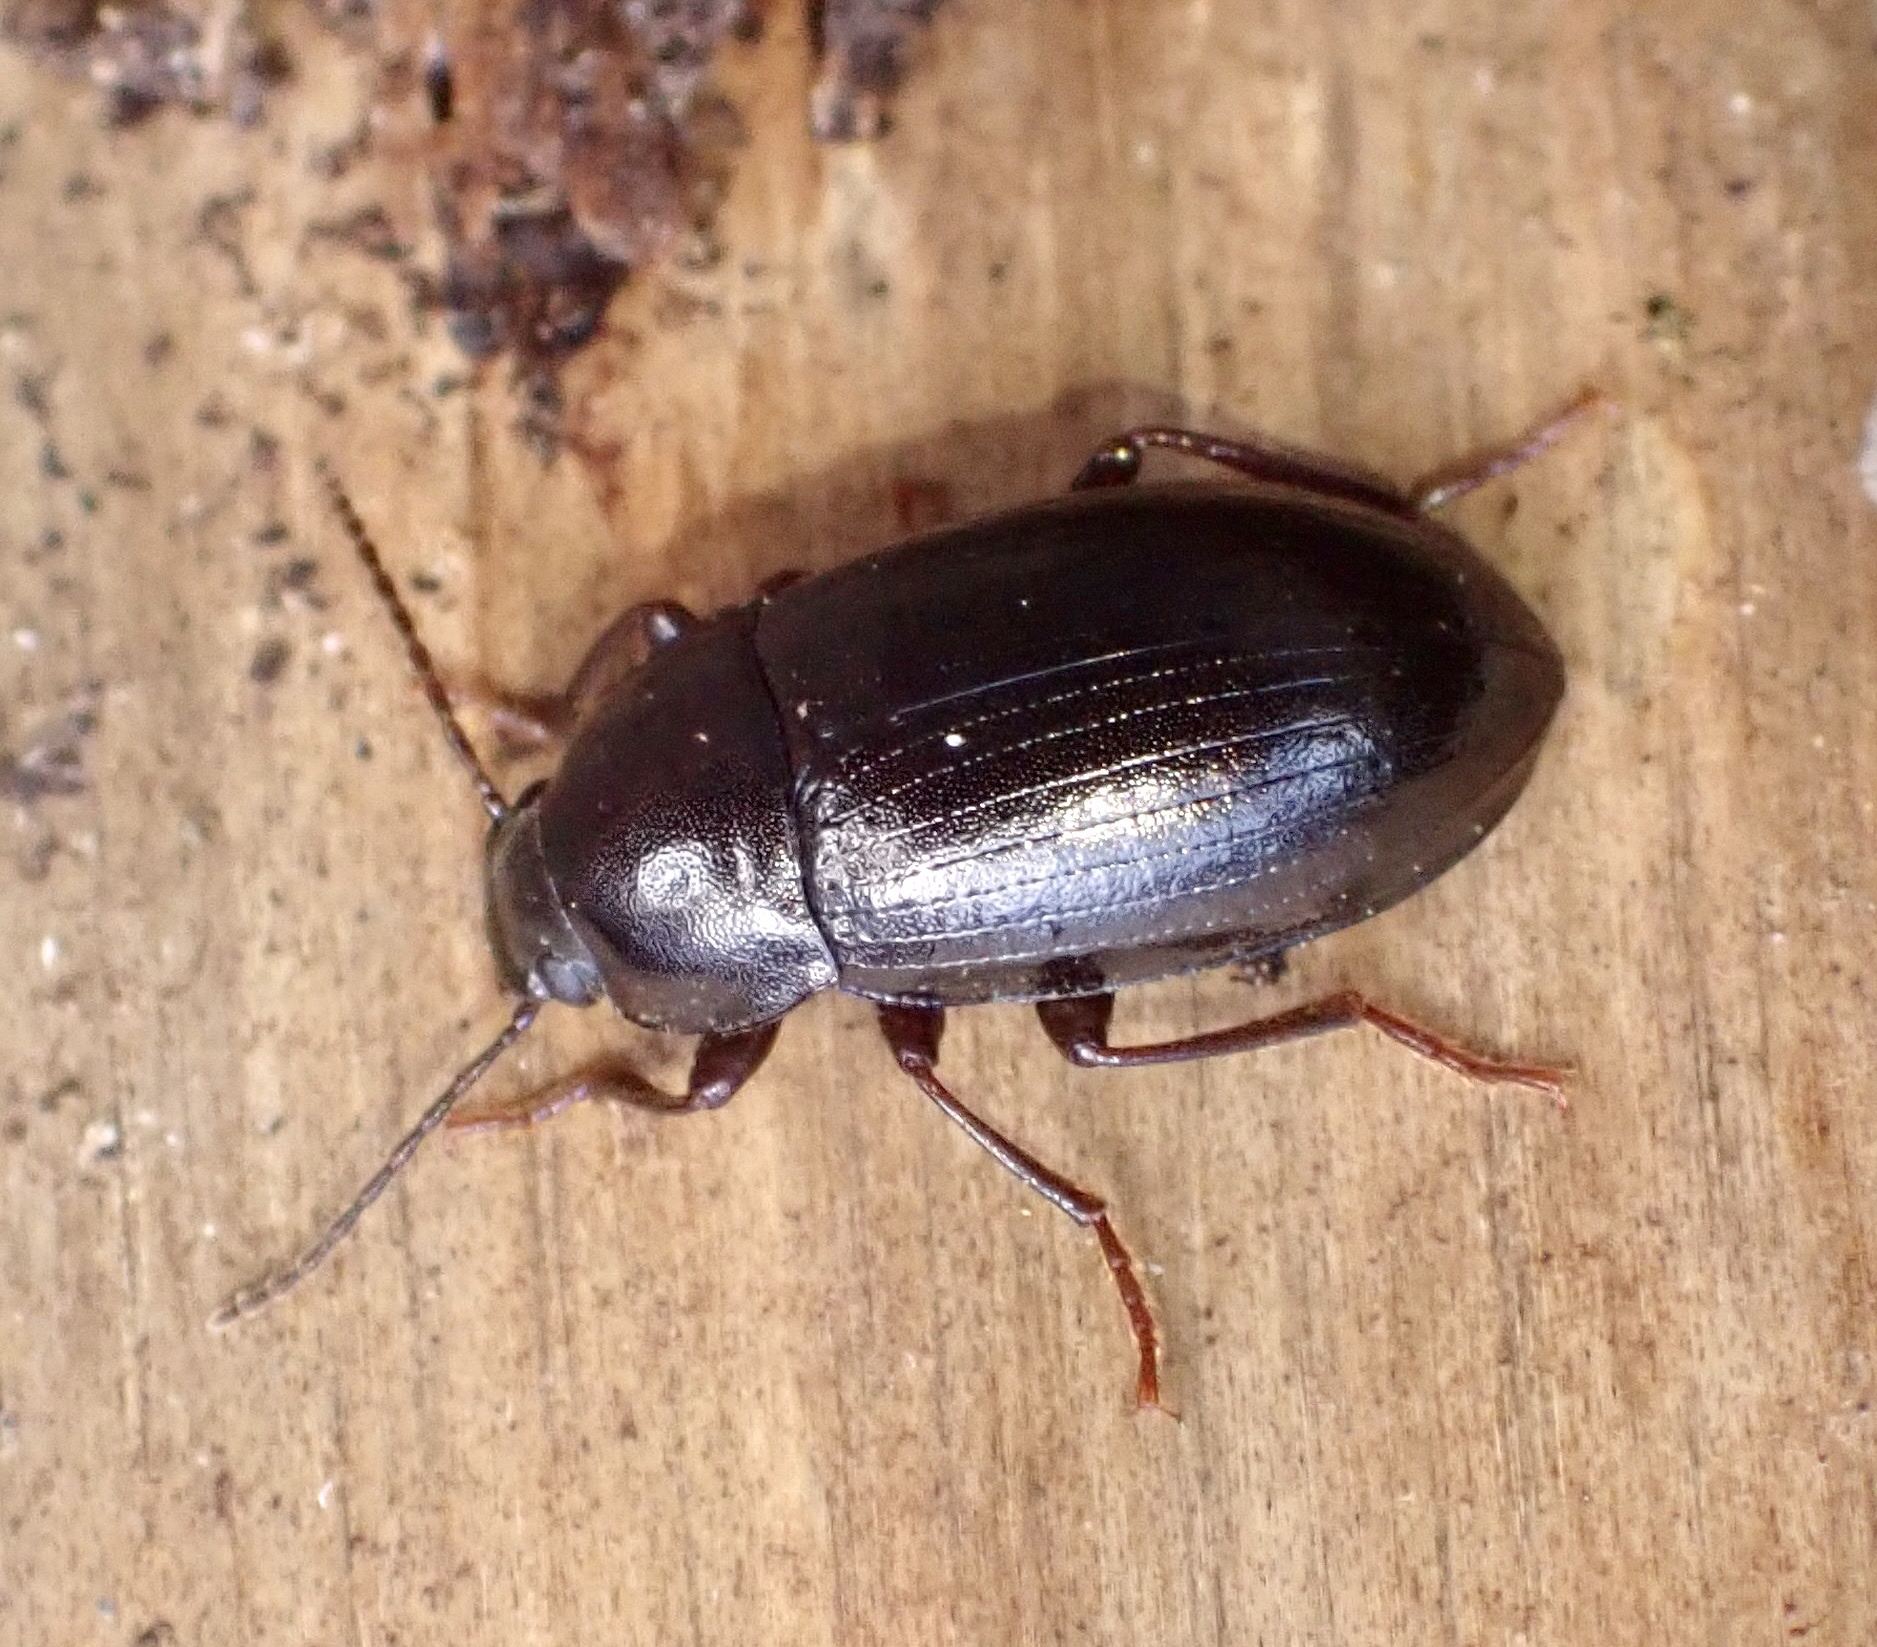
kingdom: Animalia
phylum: Arthropoda
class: Insecta
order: Coleoptera
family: Tenebrionidae
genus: Nalassus
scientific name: Nalassus laevioctostriatus
